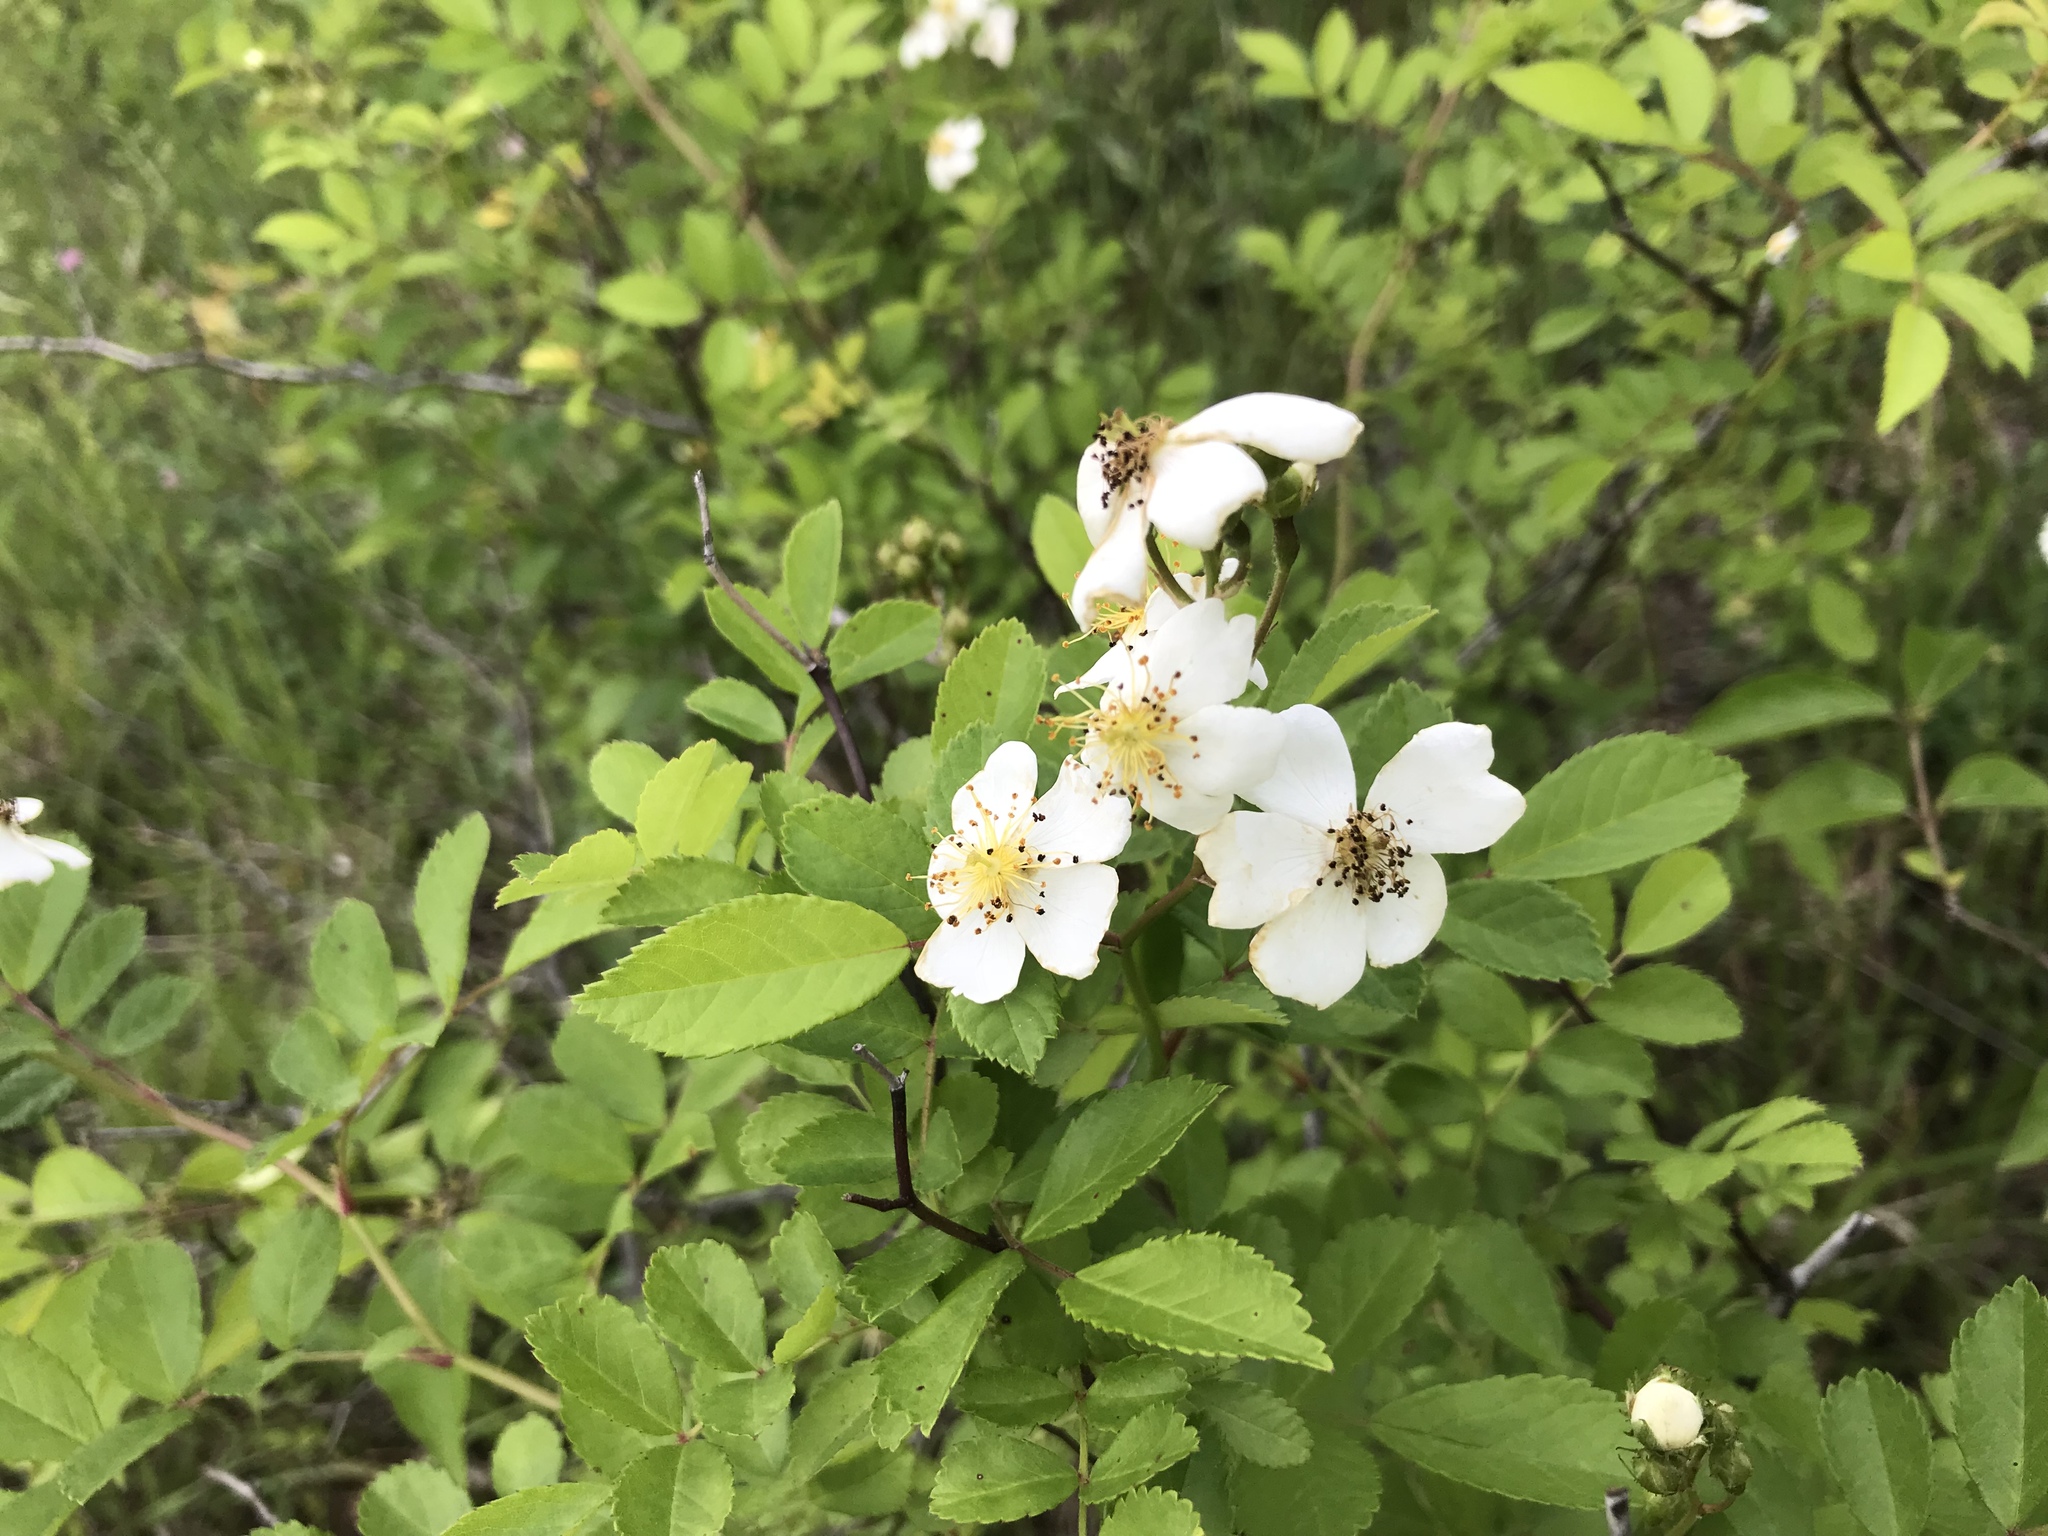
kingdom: Plantae
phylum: Tracheophyta
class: Magnoliopsida
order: Rosales
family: Rosaceae
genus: Rosa
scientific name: Rosa multiflora
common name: Multiflora rose
